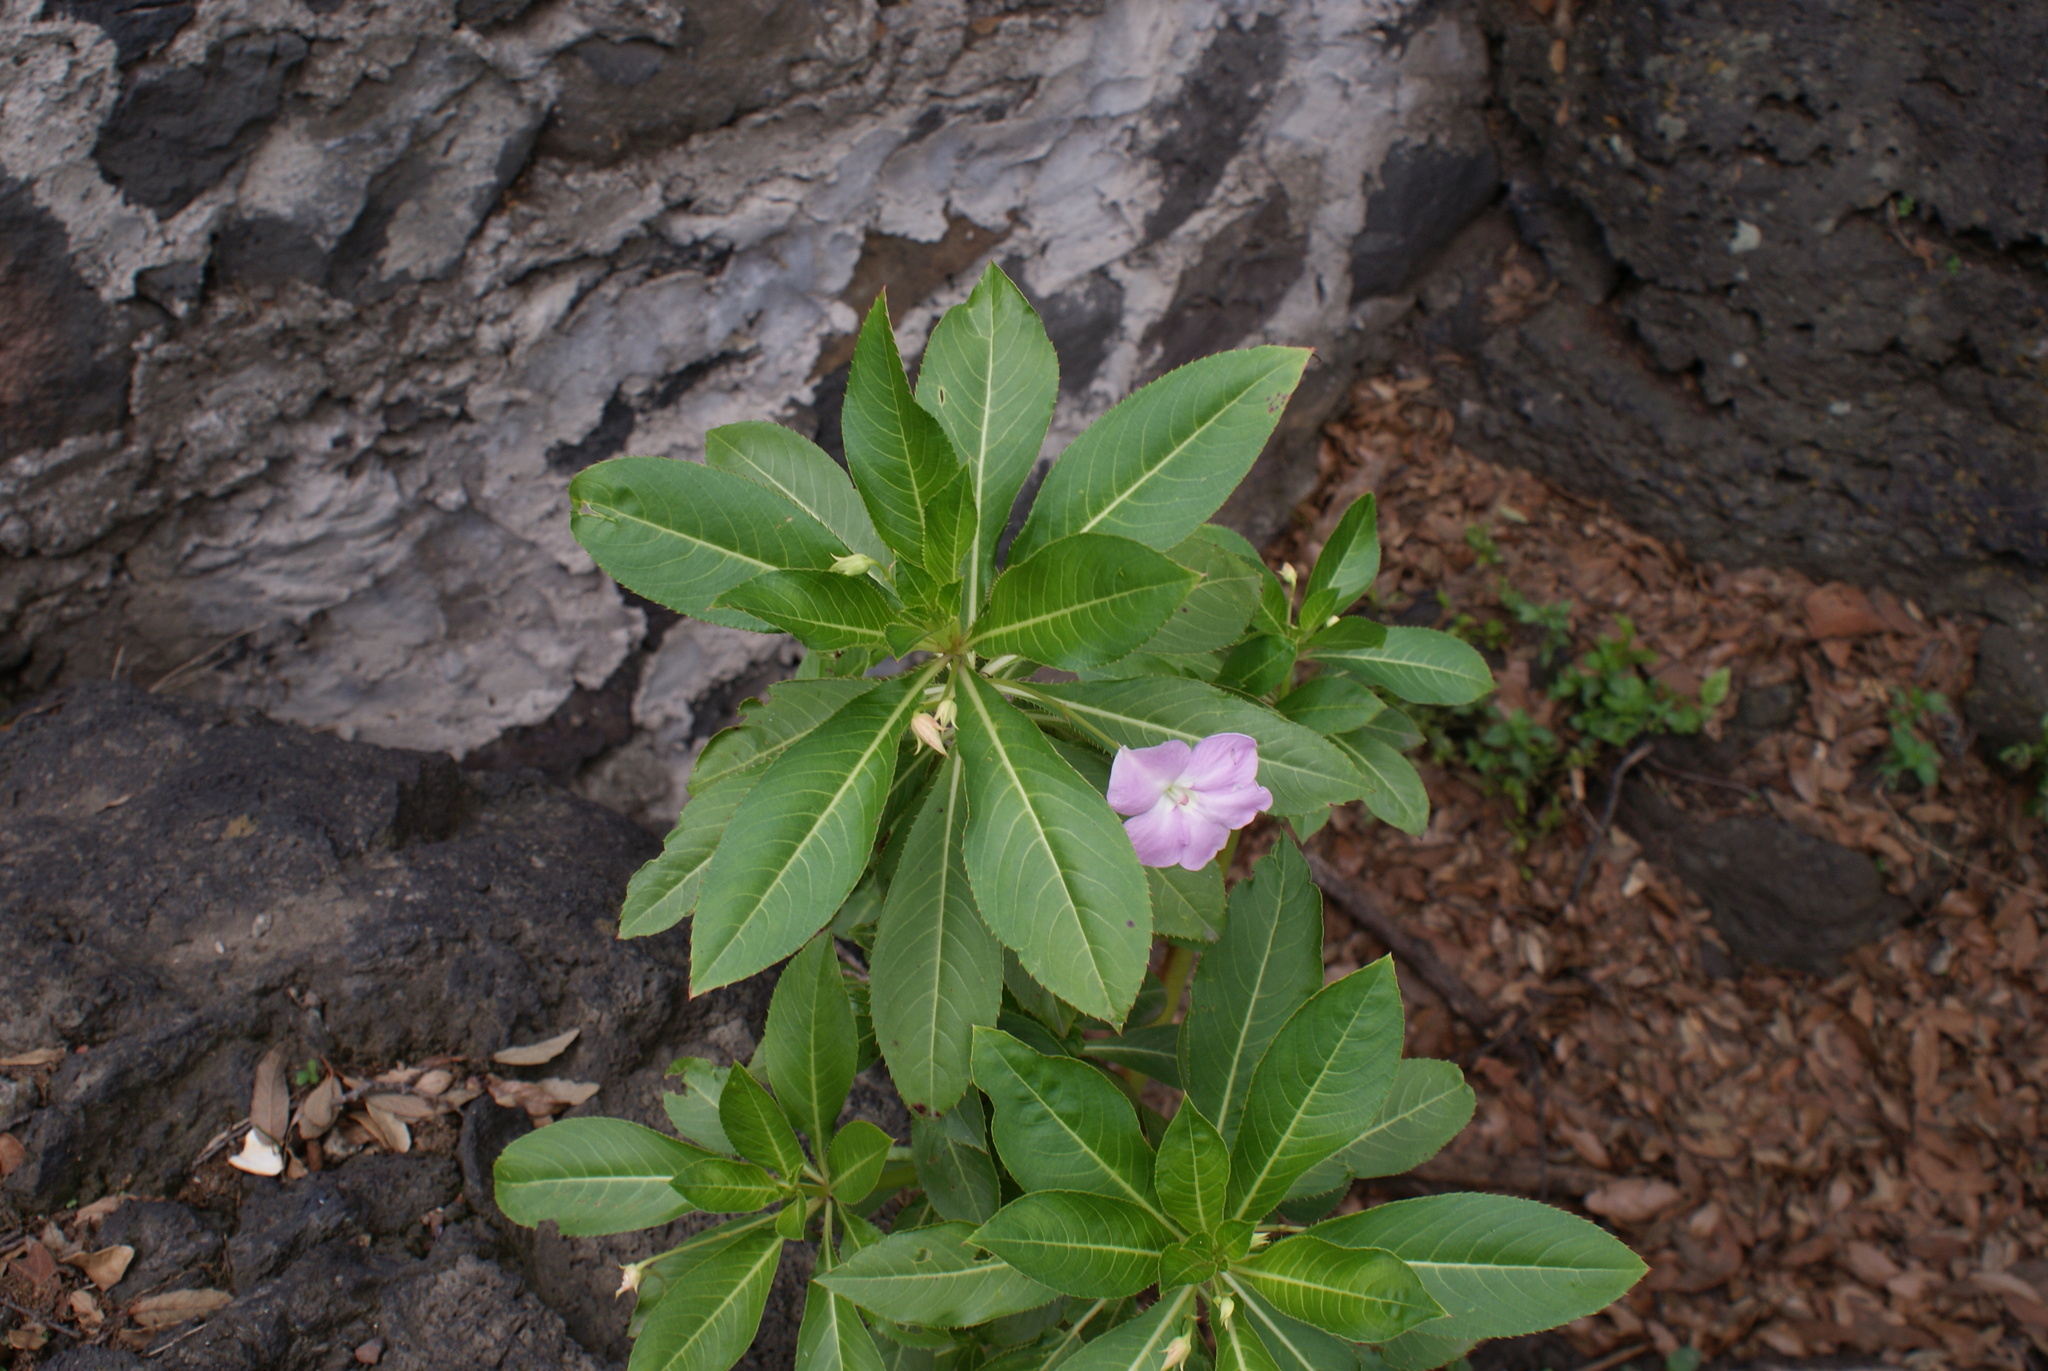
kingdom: Plantae
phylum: Tracheophyta
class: Magnoliopsida
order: Ericales
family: Balsaminaceae
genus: Impatiens
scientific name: Impatiens sodenii
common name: Oliver's touch-me-not
